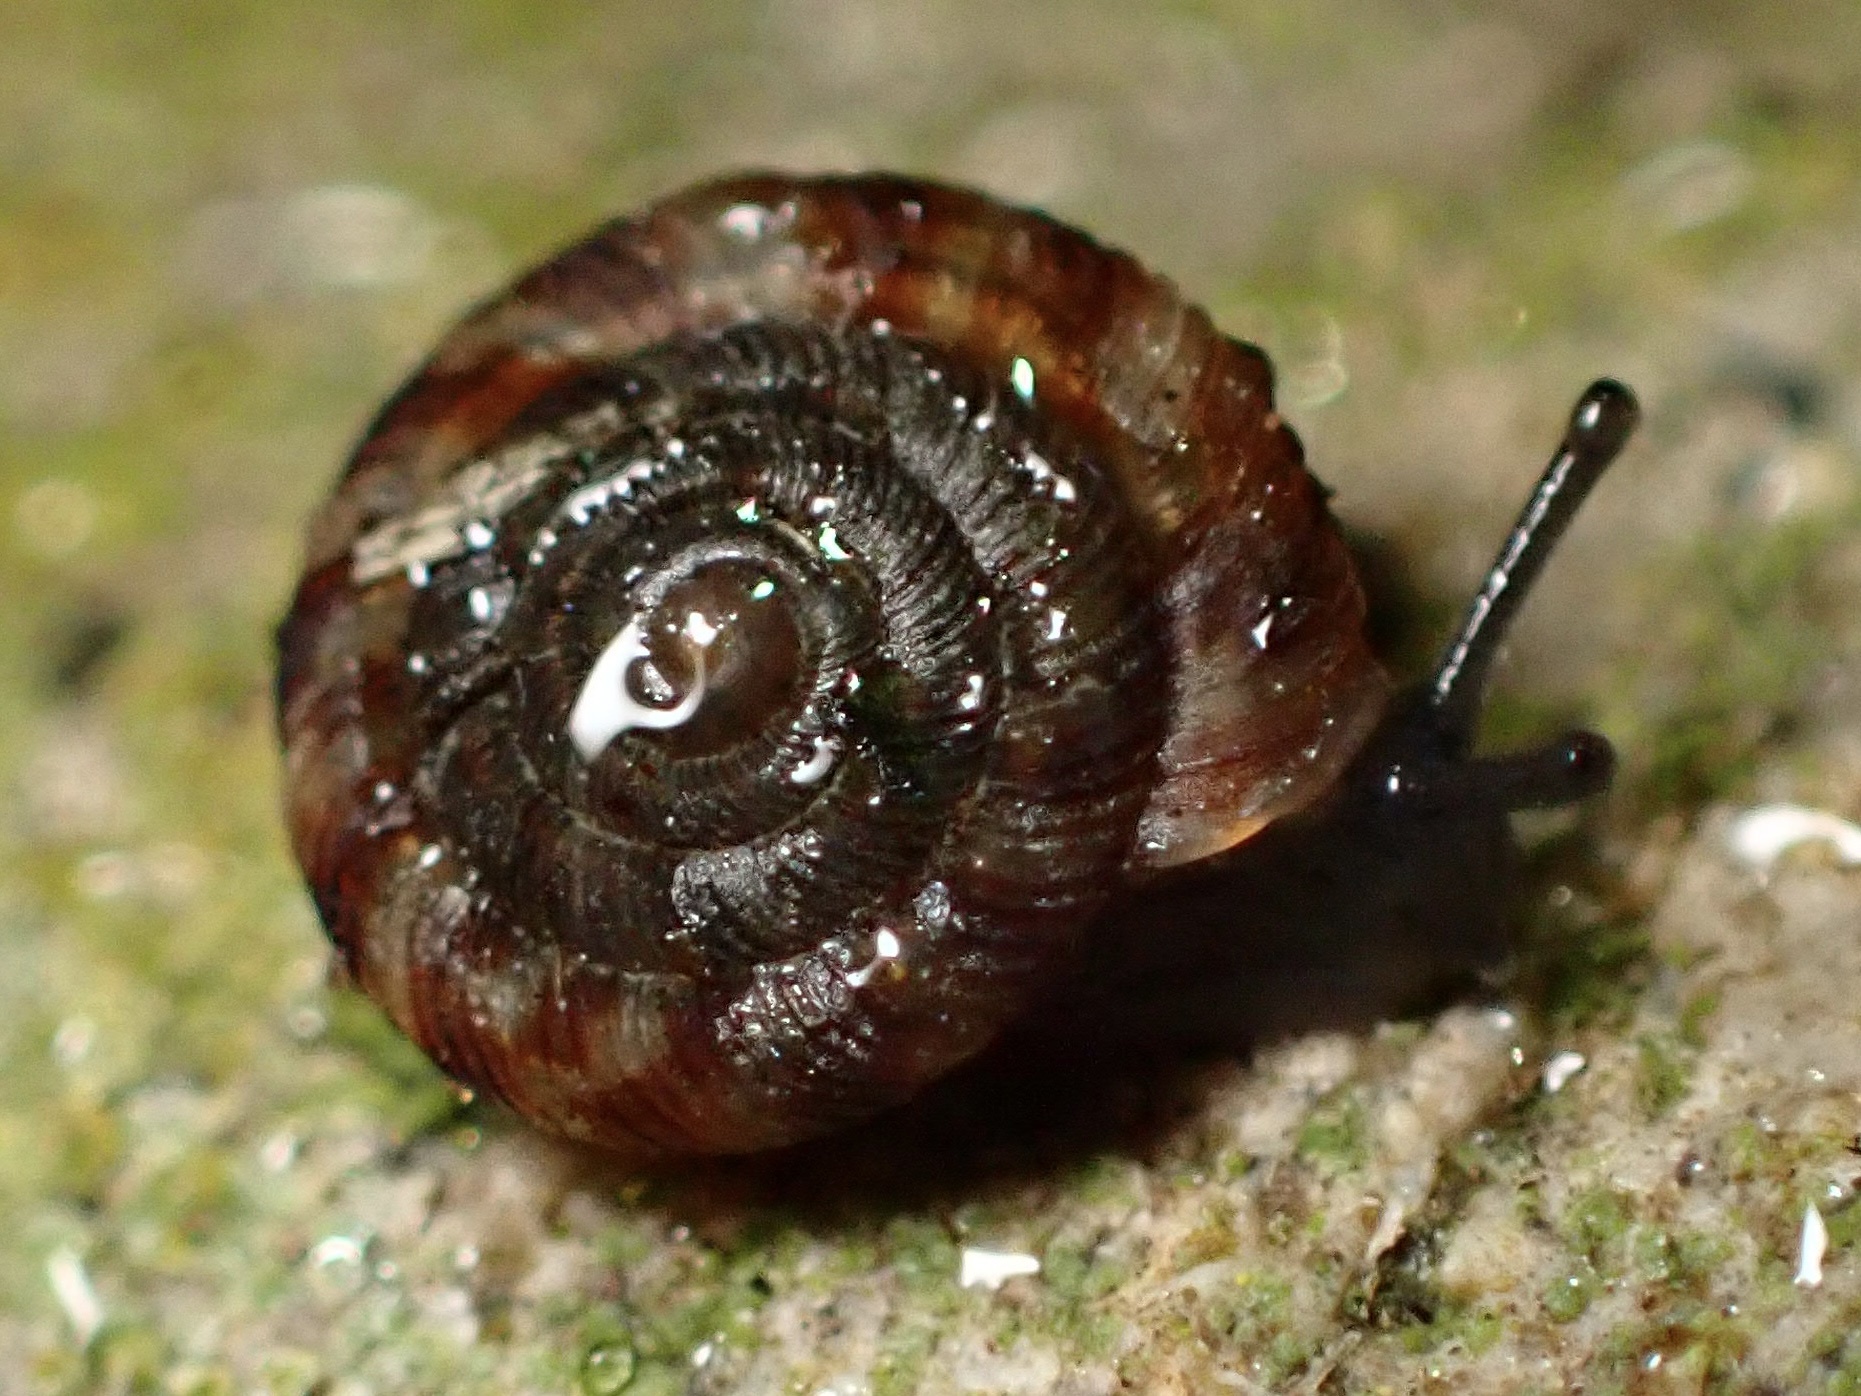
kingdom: Animalia
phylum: Mollusca
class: Gastropoda
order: Stylommatophora
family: Discidae
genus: Discus
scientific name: Discus rotundatus
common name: Rounded snail
